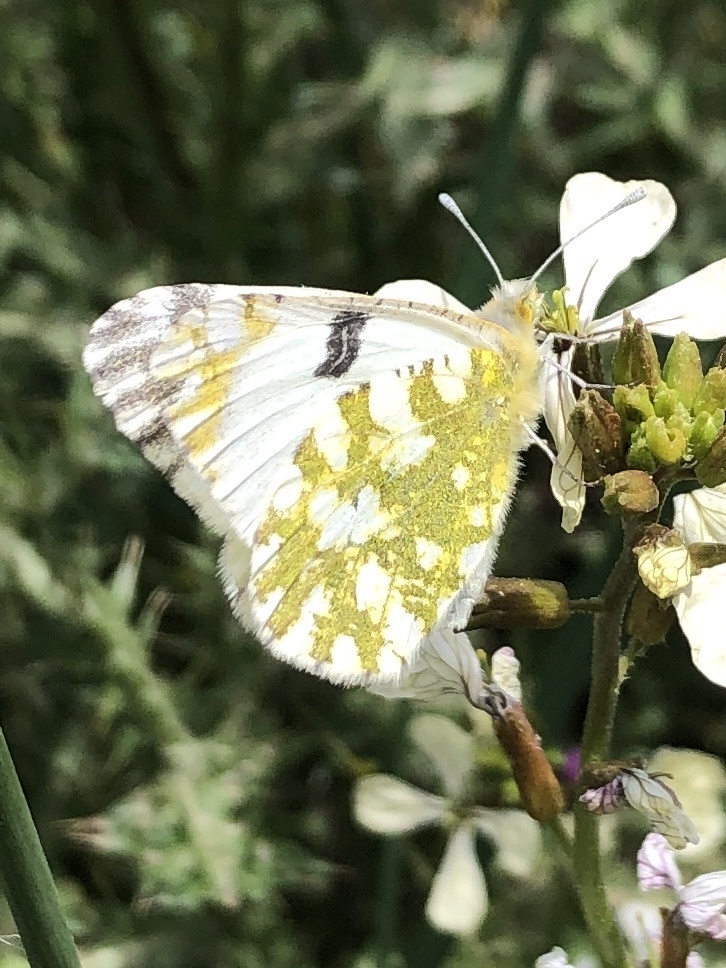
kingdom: Animalia
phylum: Arthropoda
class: Insecta
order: Lepidoptera
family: Pieridae
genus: Euchloe
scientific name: Euchloe crameri
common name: Western dappled white
